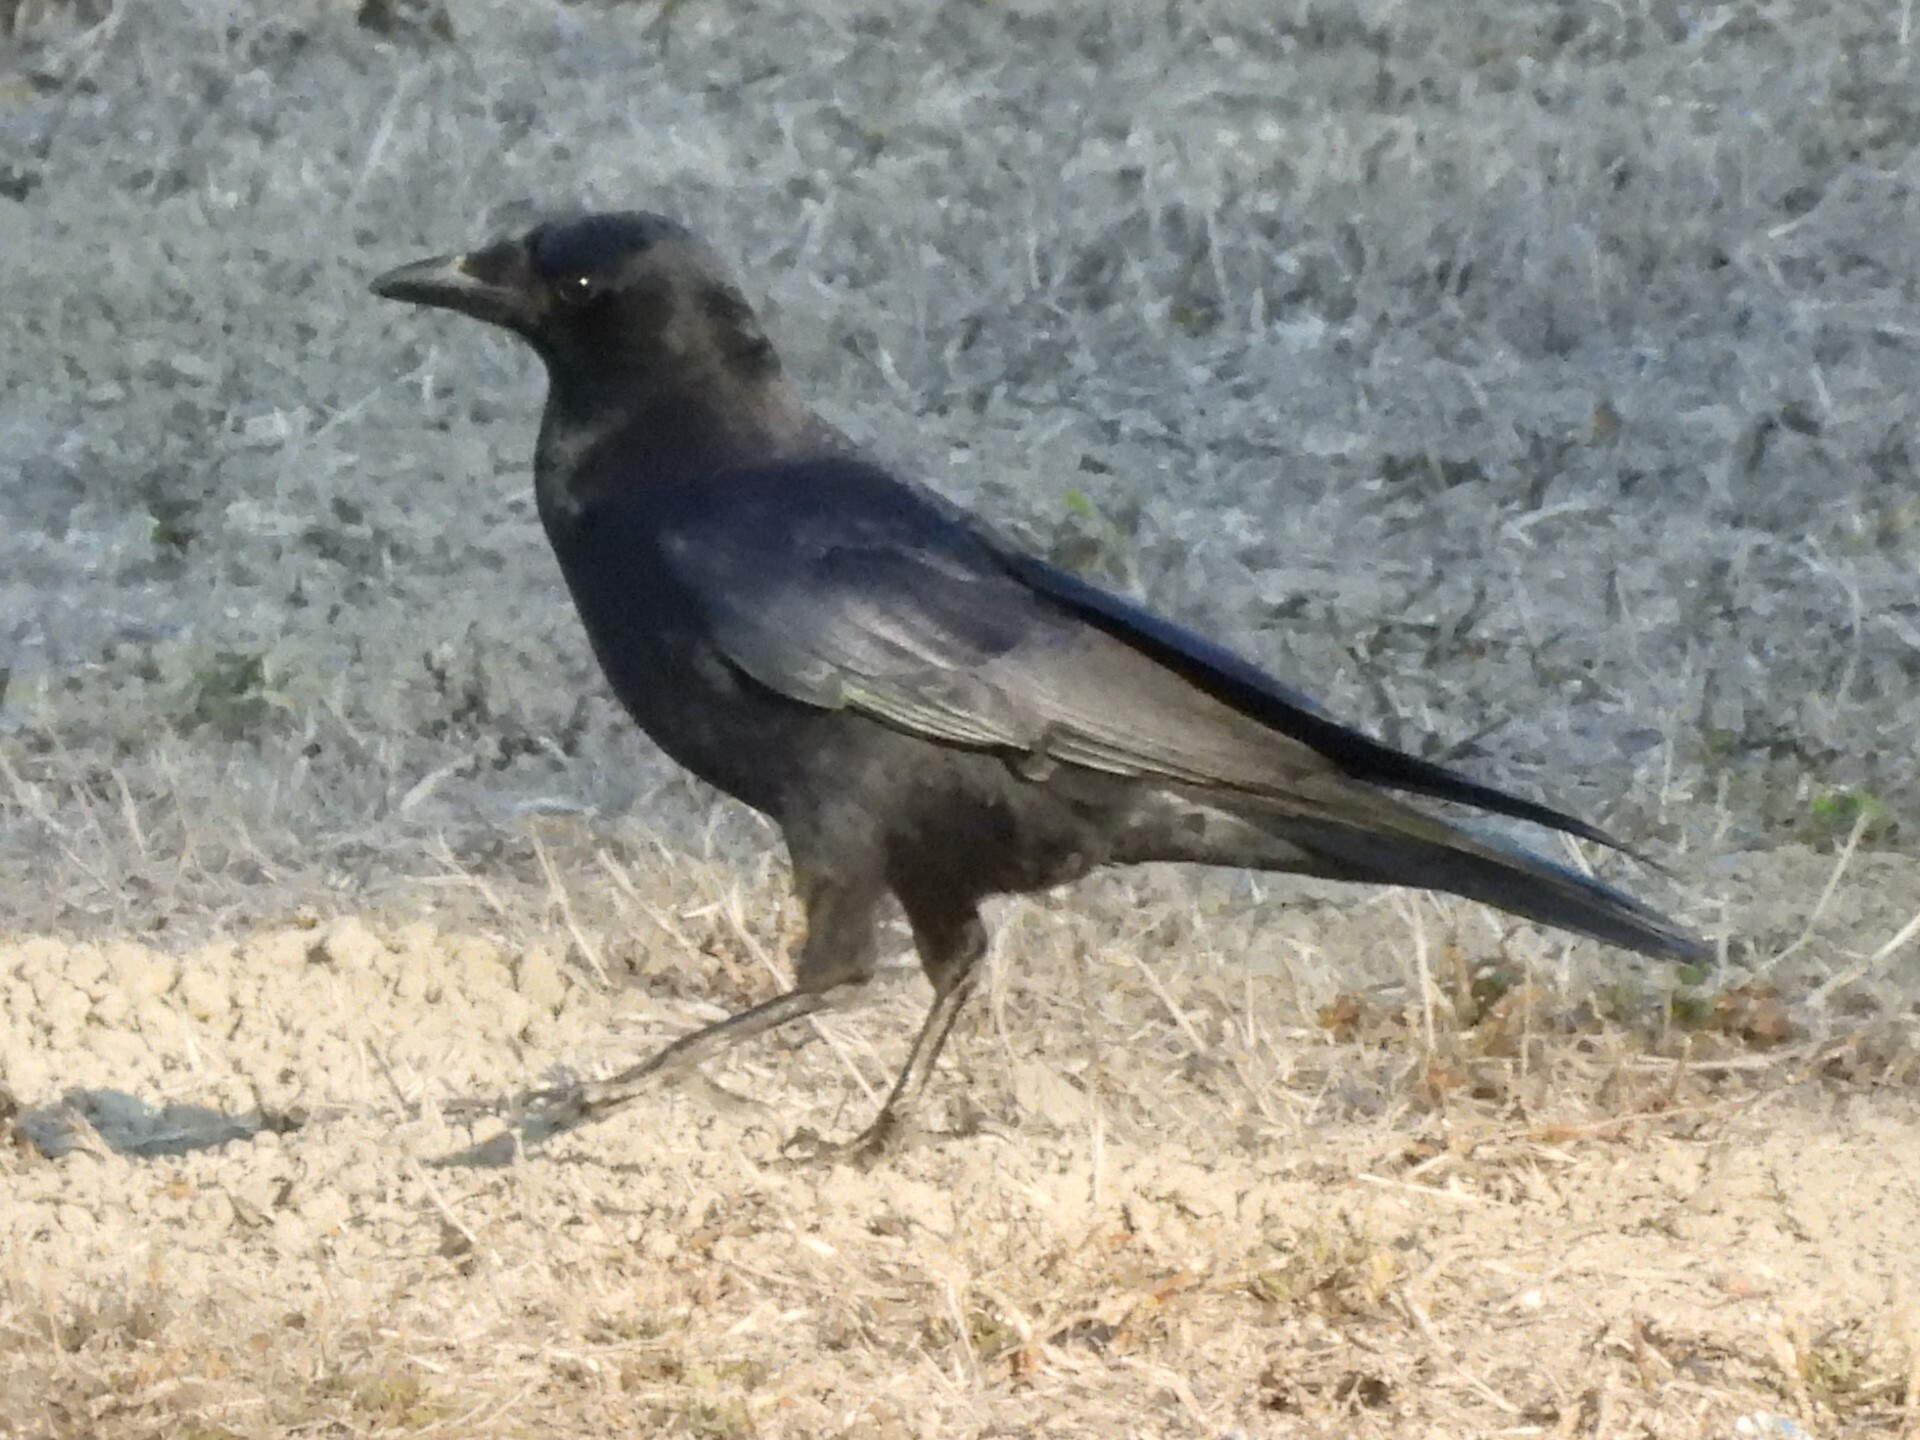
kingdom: Animalia
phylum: Chordata
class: Aves
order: Passeriformes
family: Corvidae
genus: Corvus
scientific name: Corvus brachyrhynchos
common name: American crow
